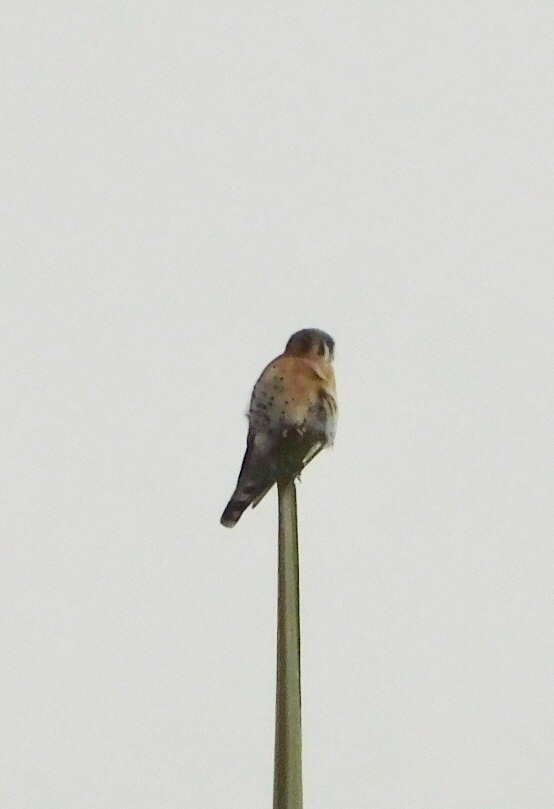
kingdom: Animalia
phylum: Chordata
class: Aves
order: Falconiformes
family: Falconidae
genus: Falco
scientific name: Falco sparverius
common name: American kestrel
